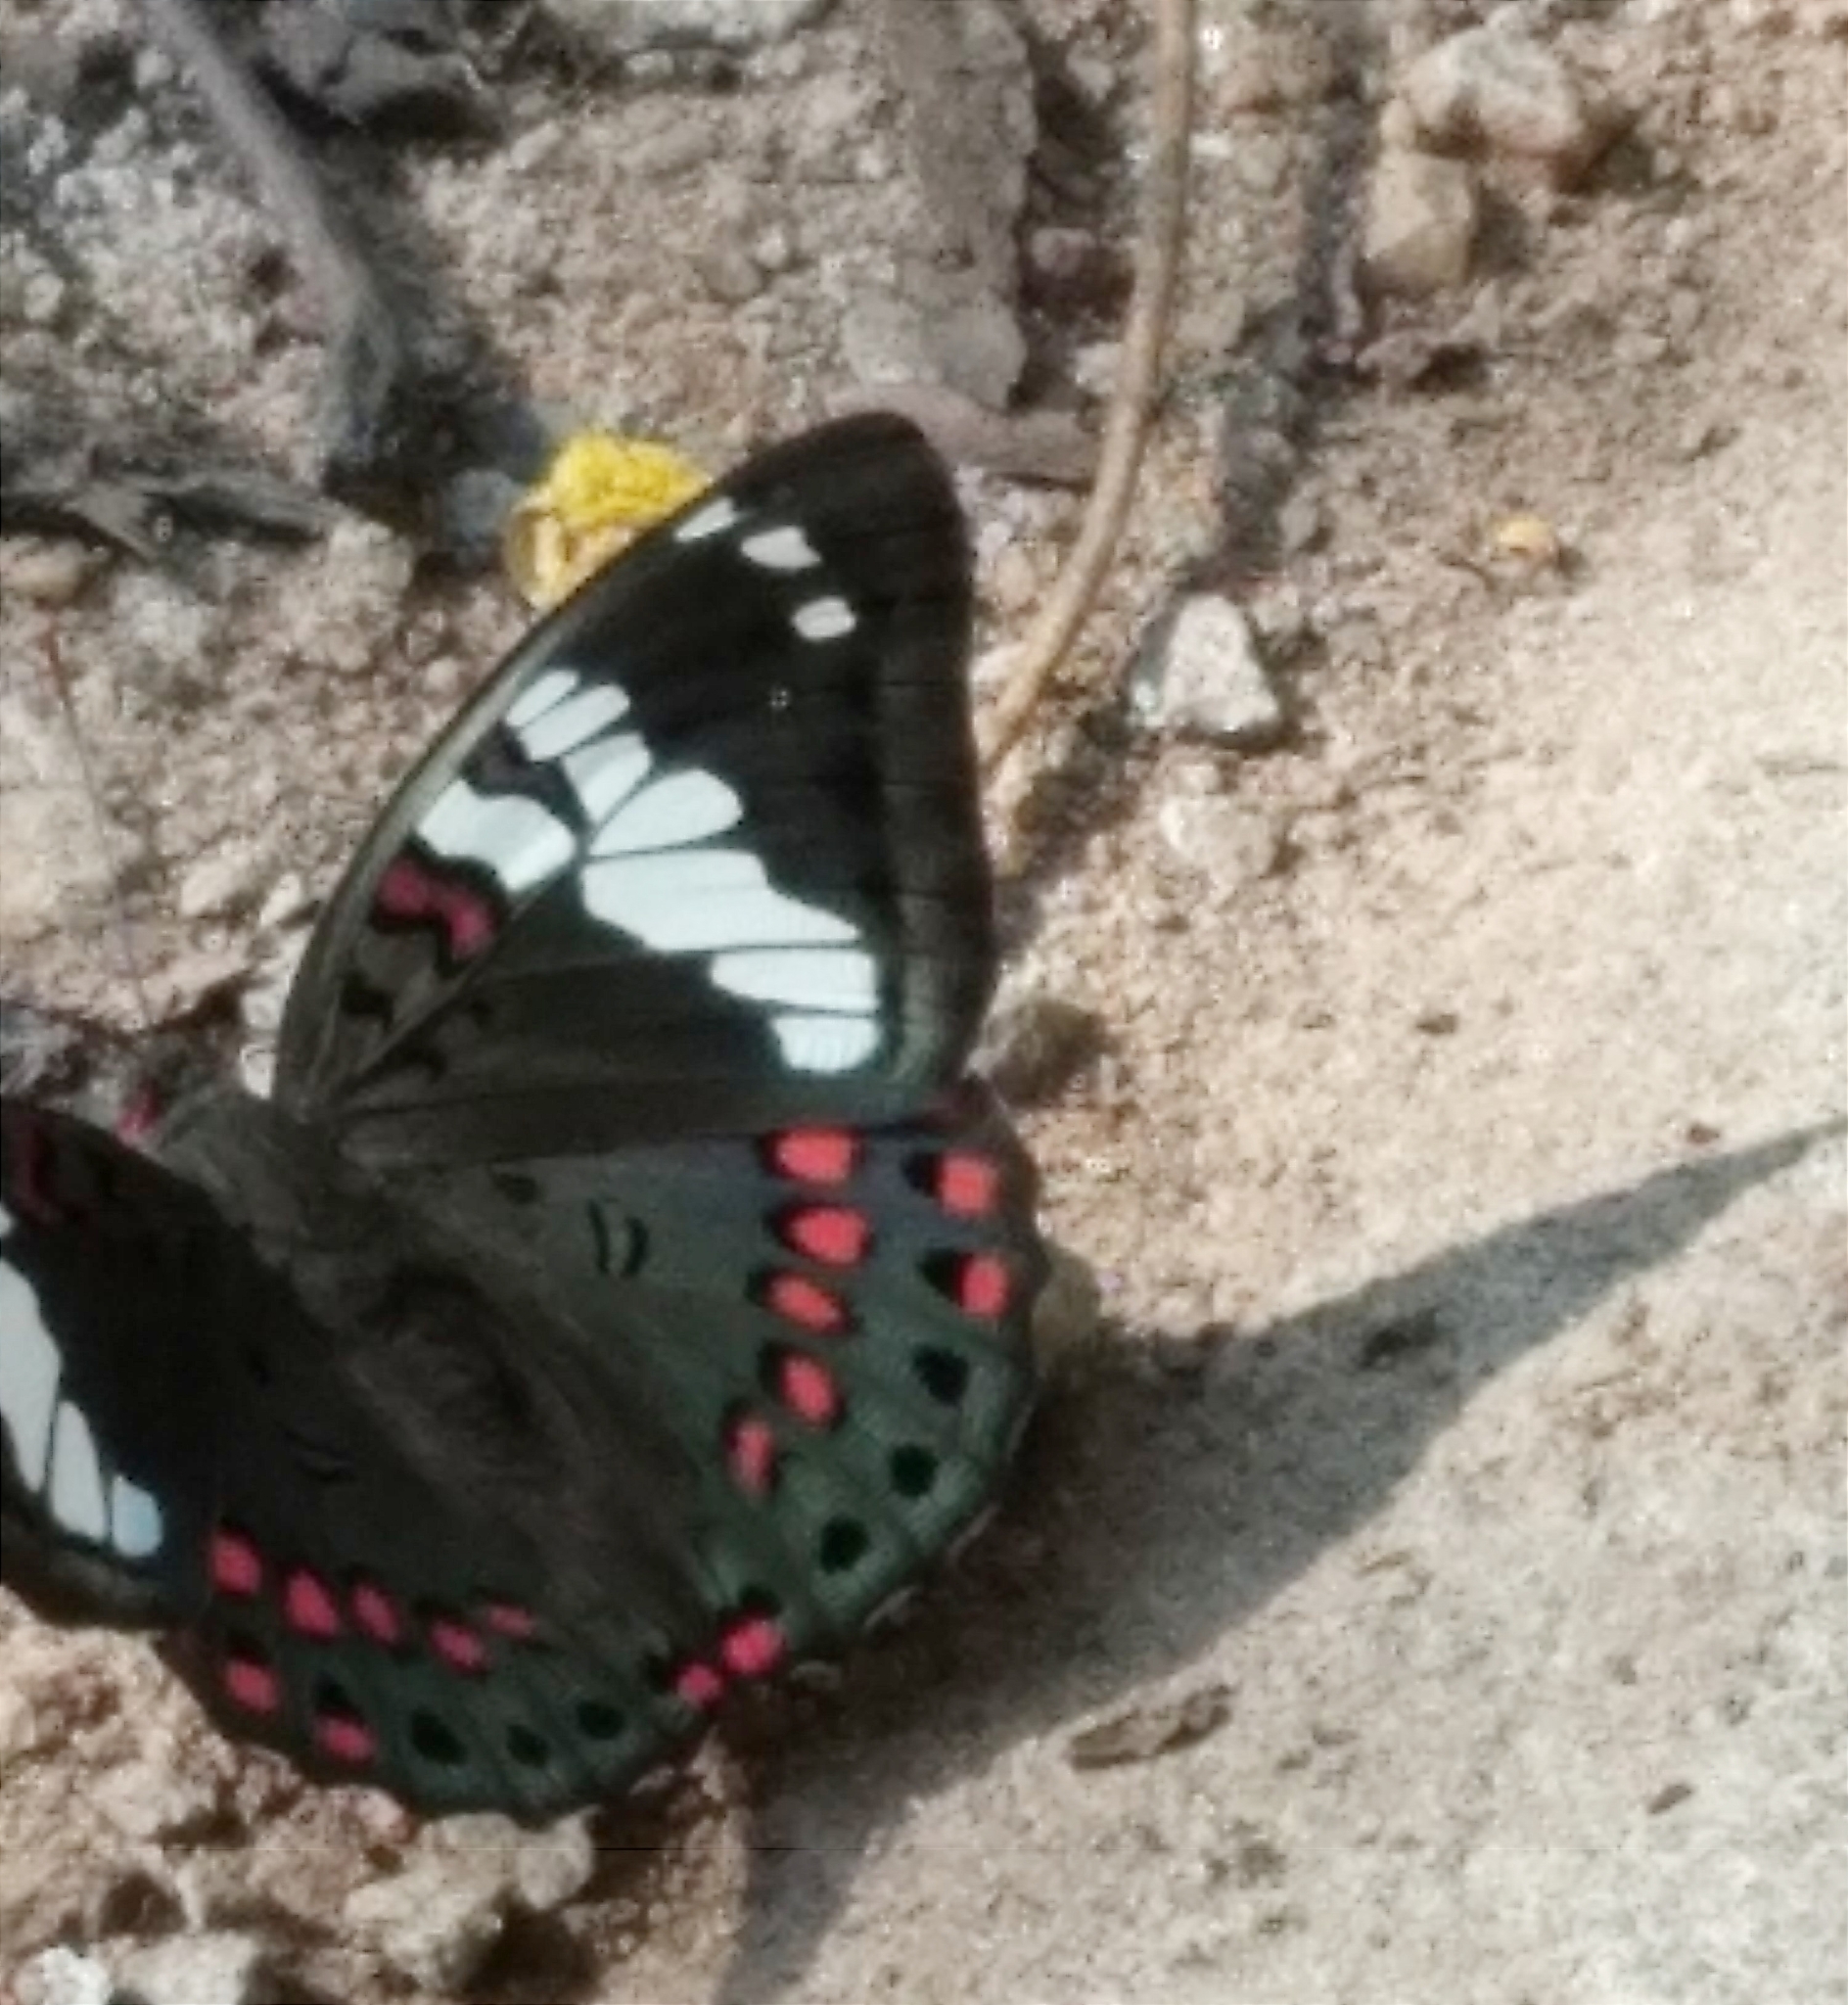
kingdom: Animalia
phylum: Arthropoda
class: Insecta
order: Lepidoptera
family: Nymphalidae
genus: Euthalia
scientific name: Euthalia lubentina
